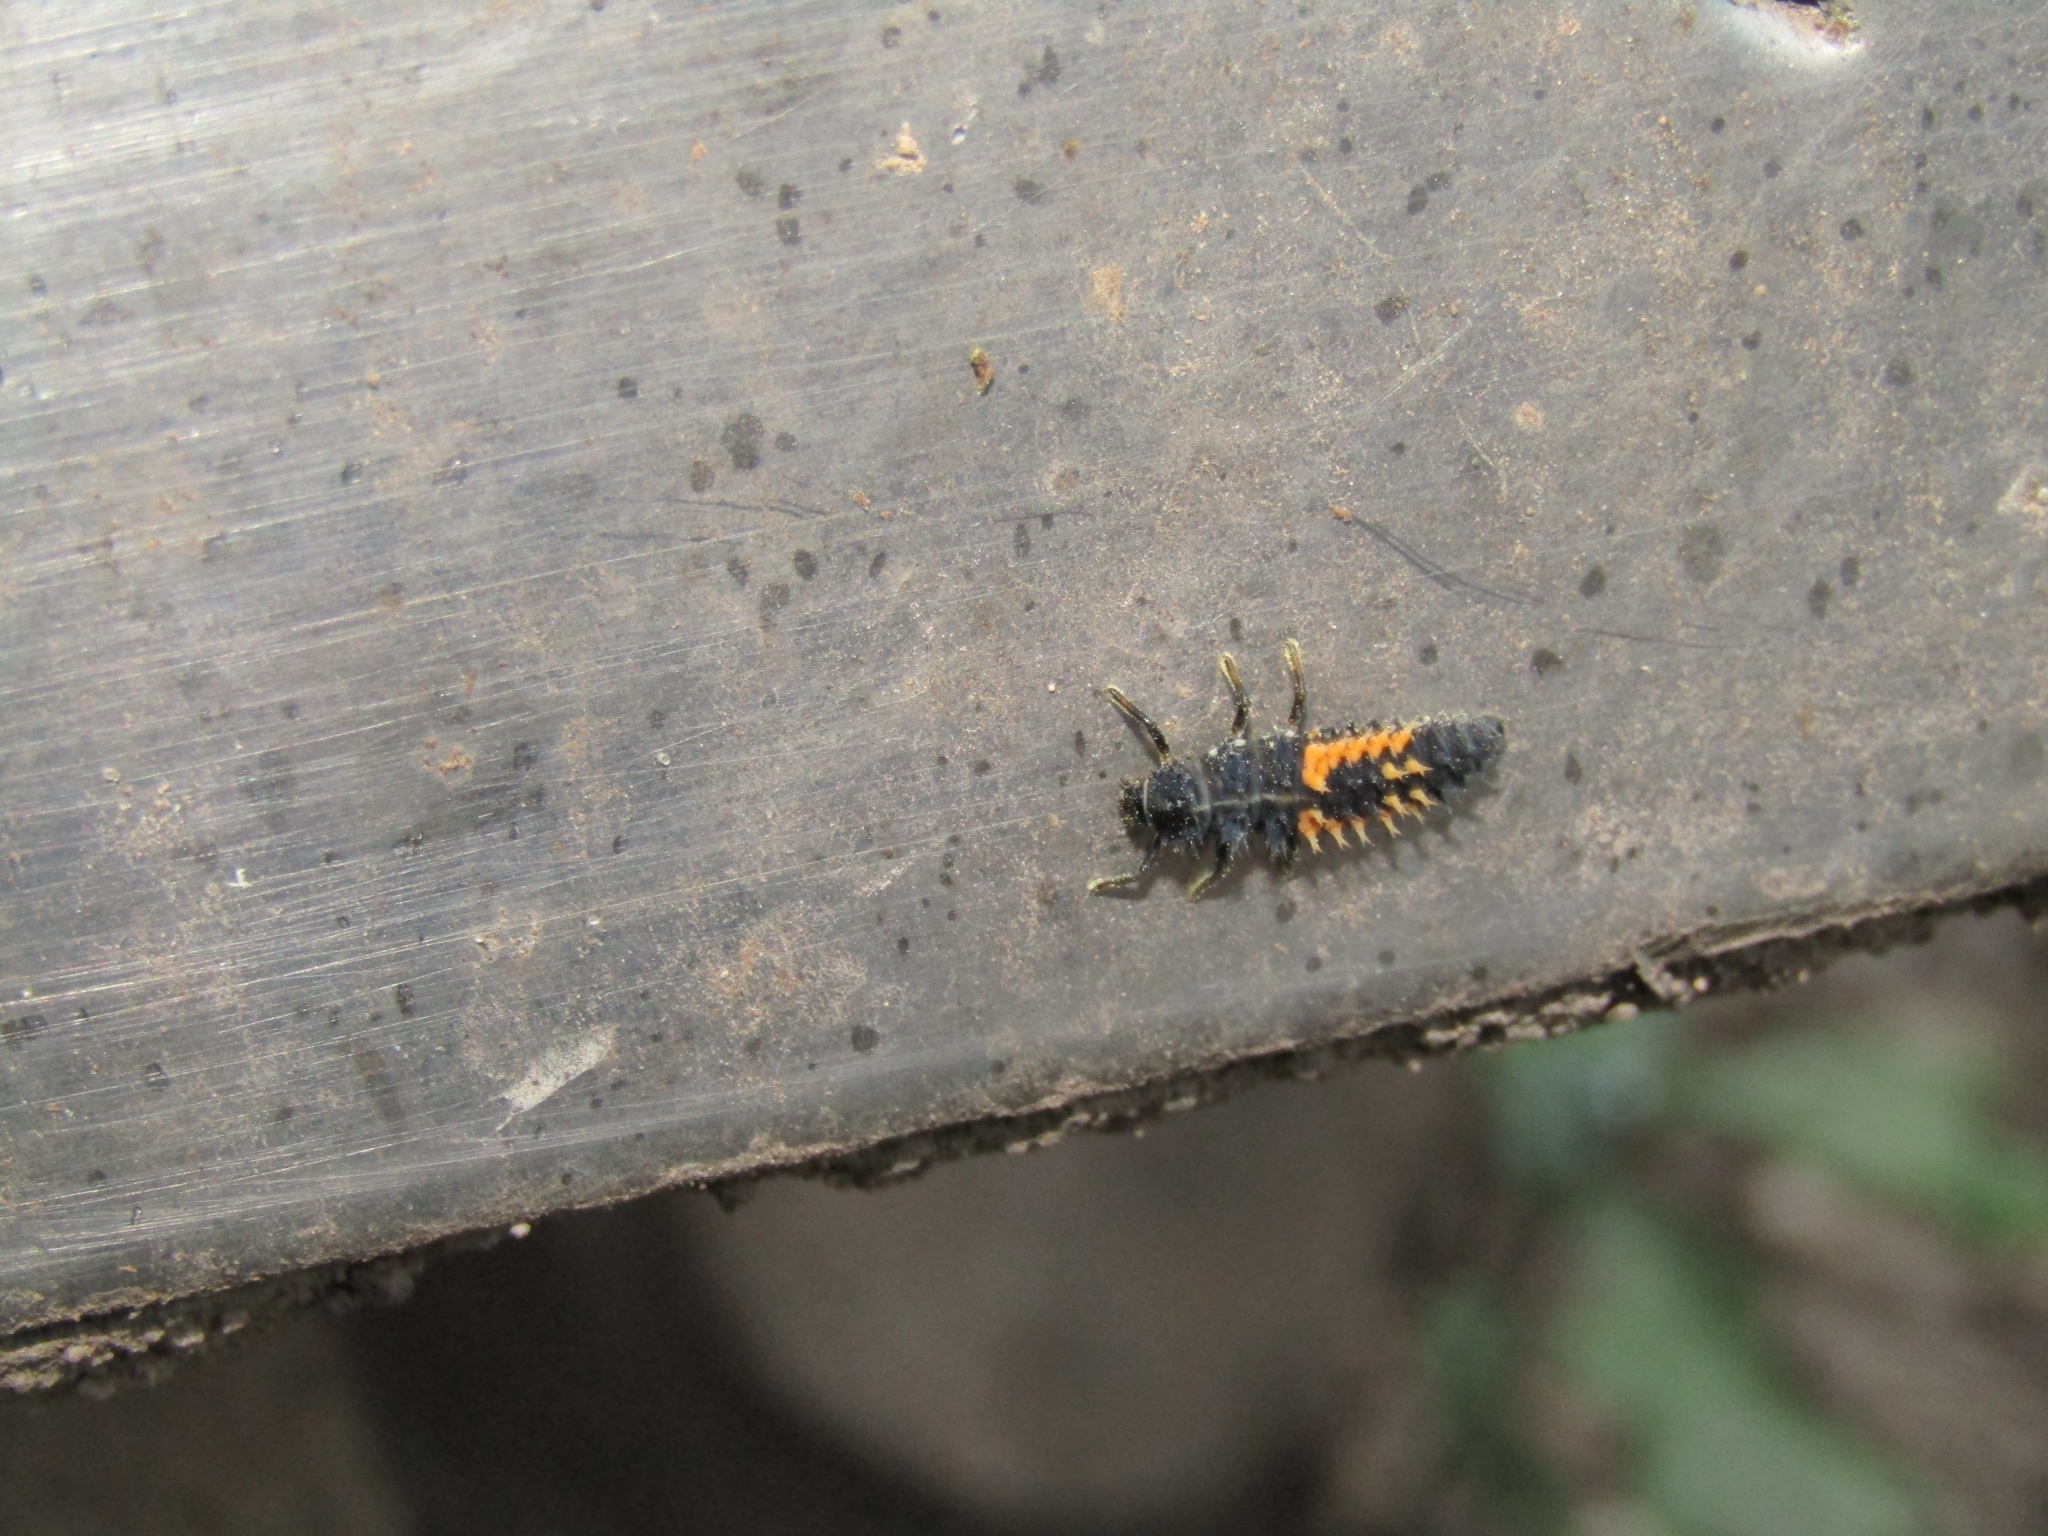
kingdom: Animalia
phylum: Arthropoda
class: Insecta
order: Coleoptera
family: Coccinellidae
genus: Harmonia
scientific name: Harmonia axyridis
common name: Harlequin ladybird
